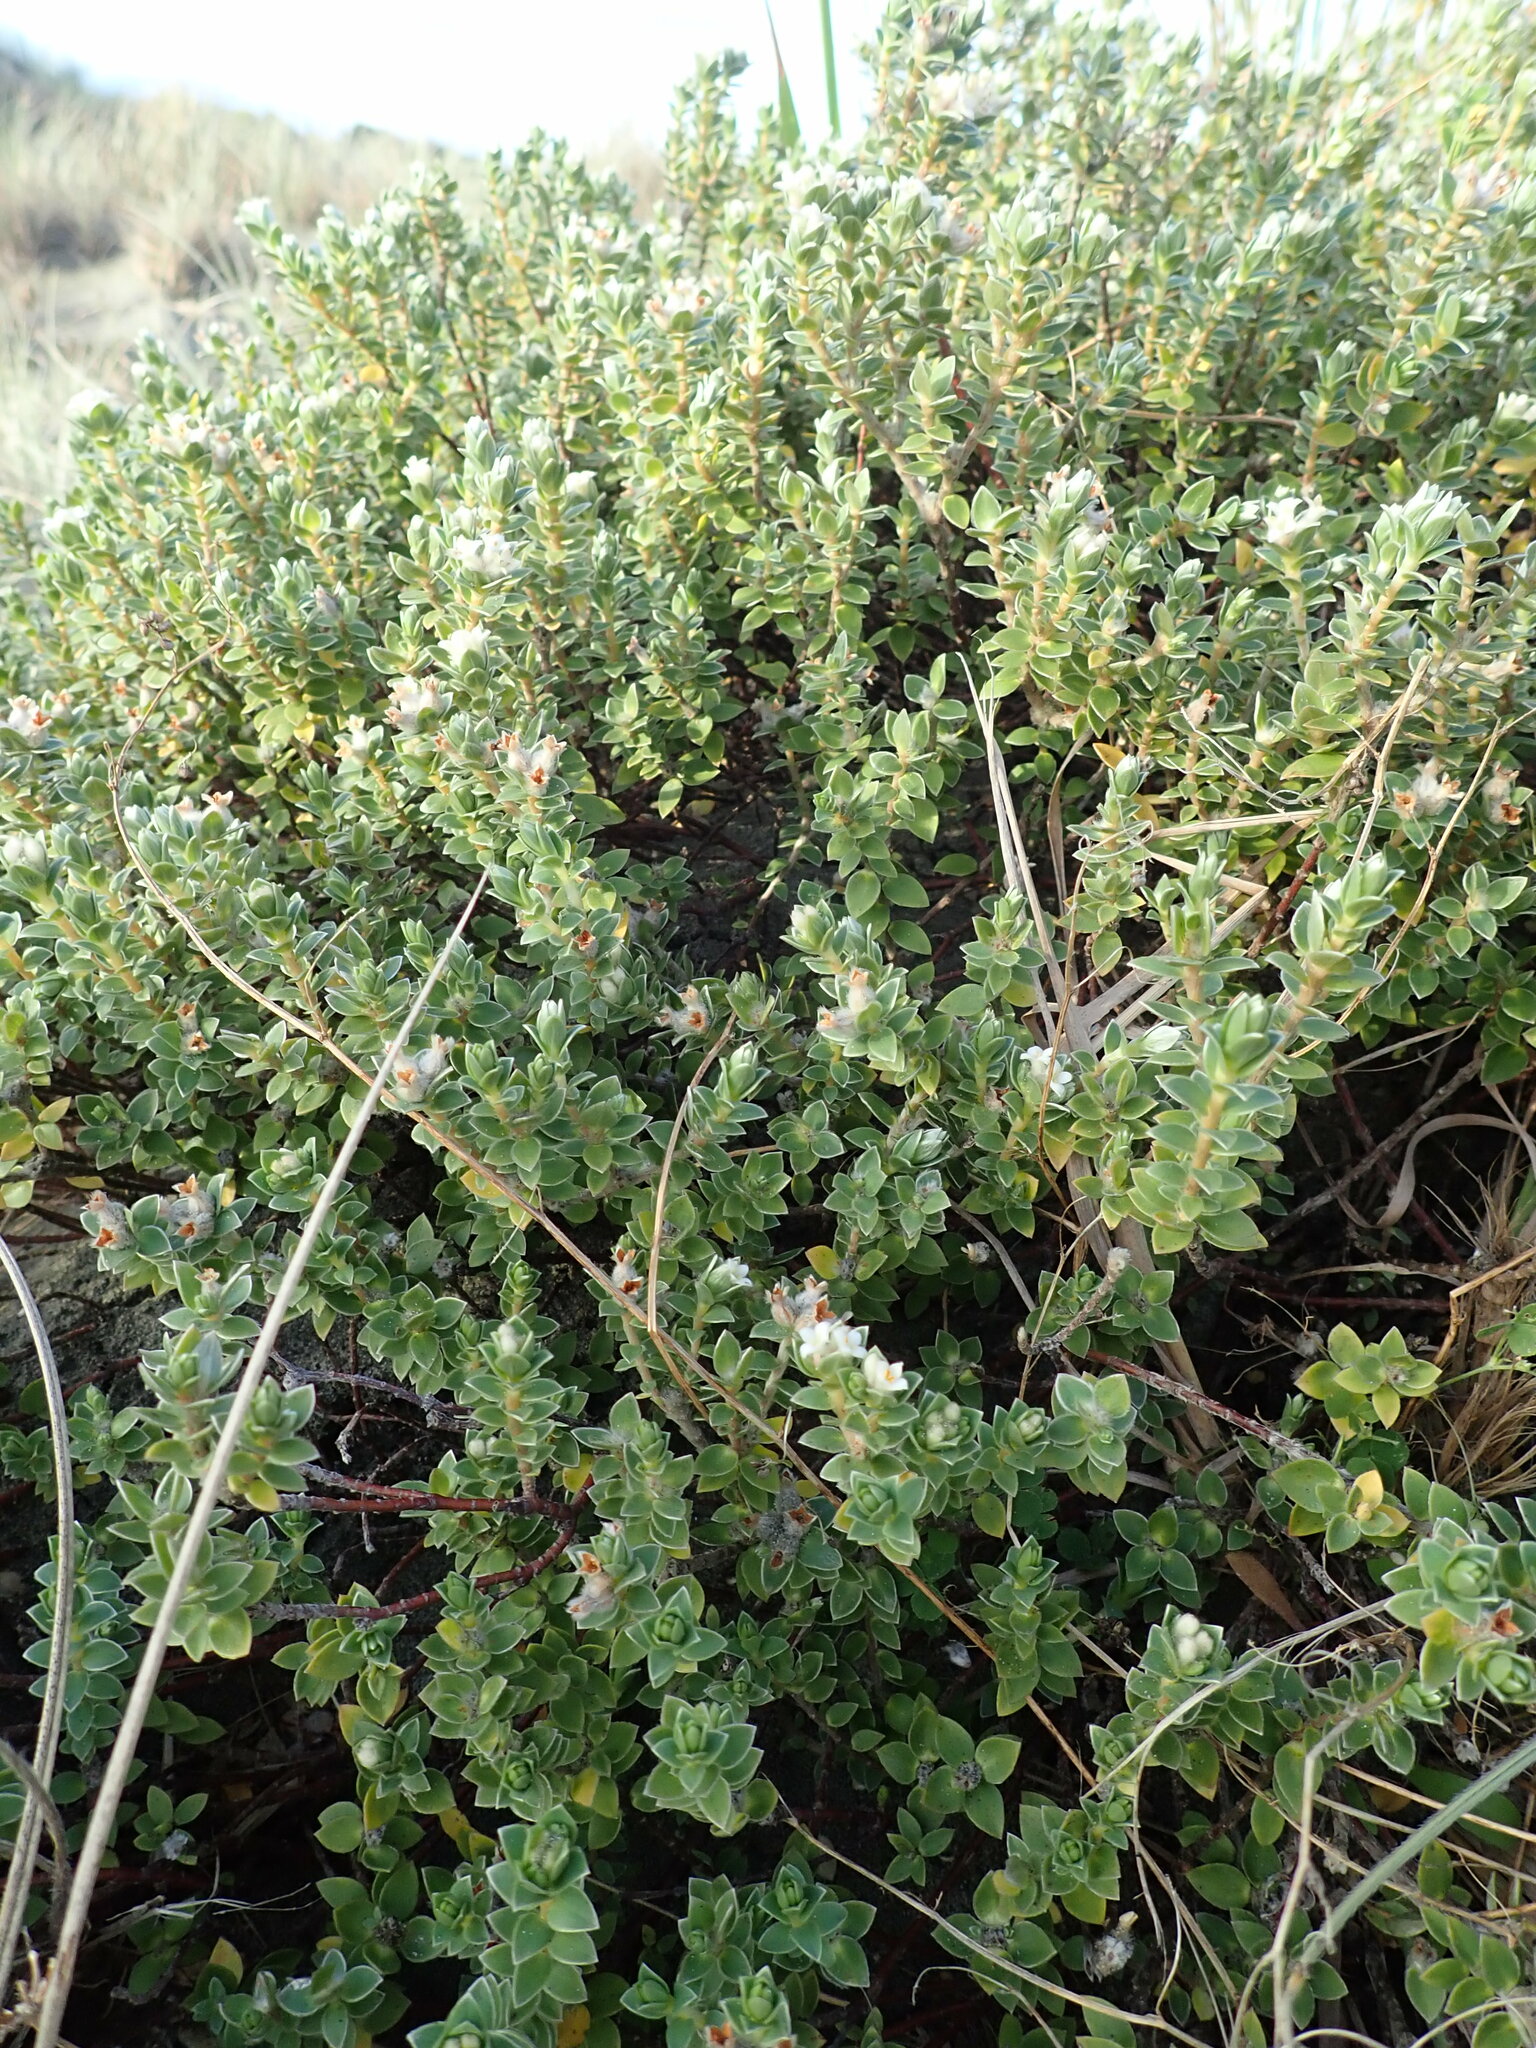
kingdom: Plantae
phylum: Tracheophyta
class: Magnoliopsida
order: Malvales
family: Thymelaeaceae
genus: Pimelea
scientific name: Pimelea villosa
